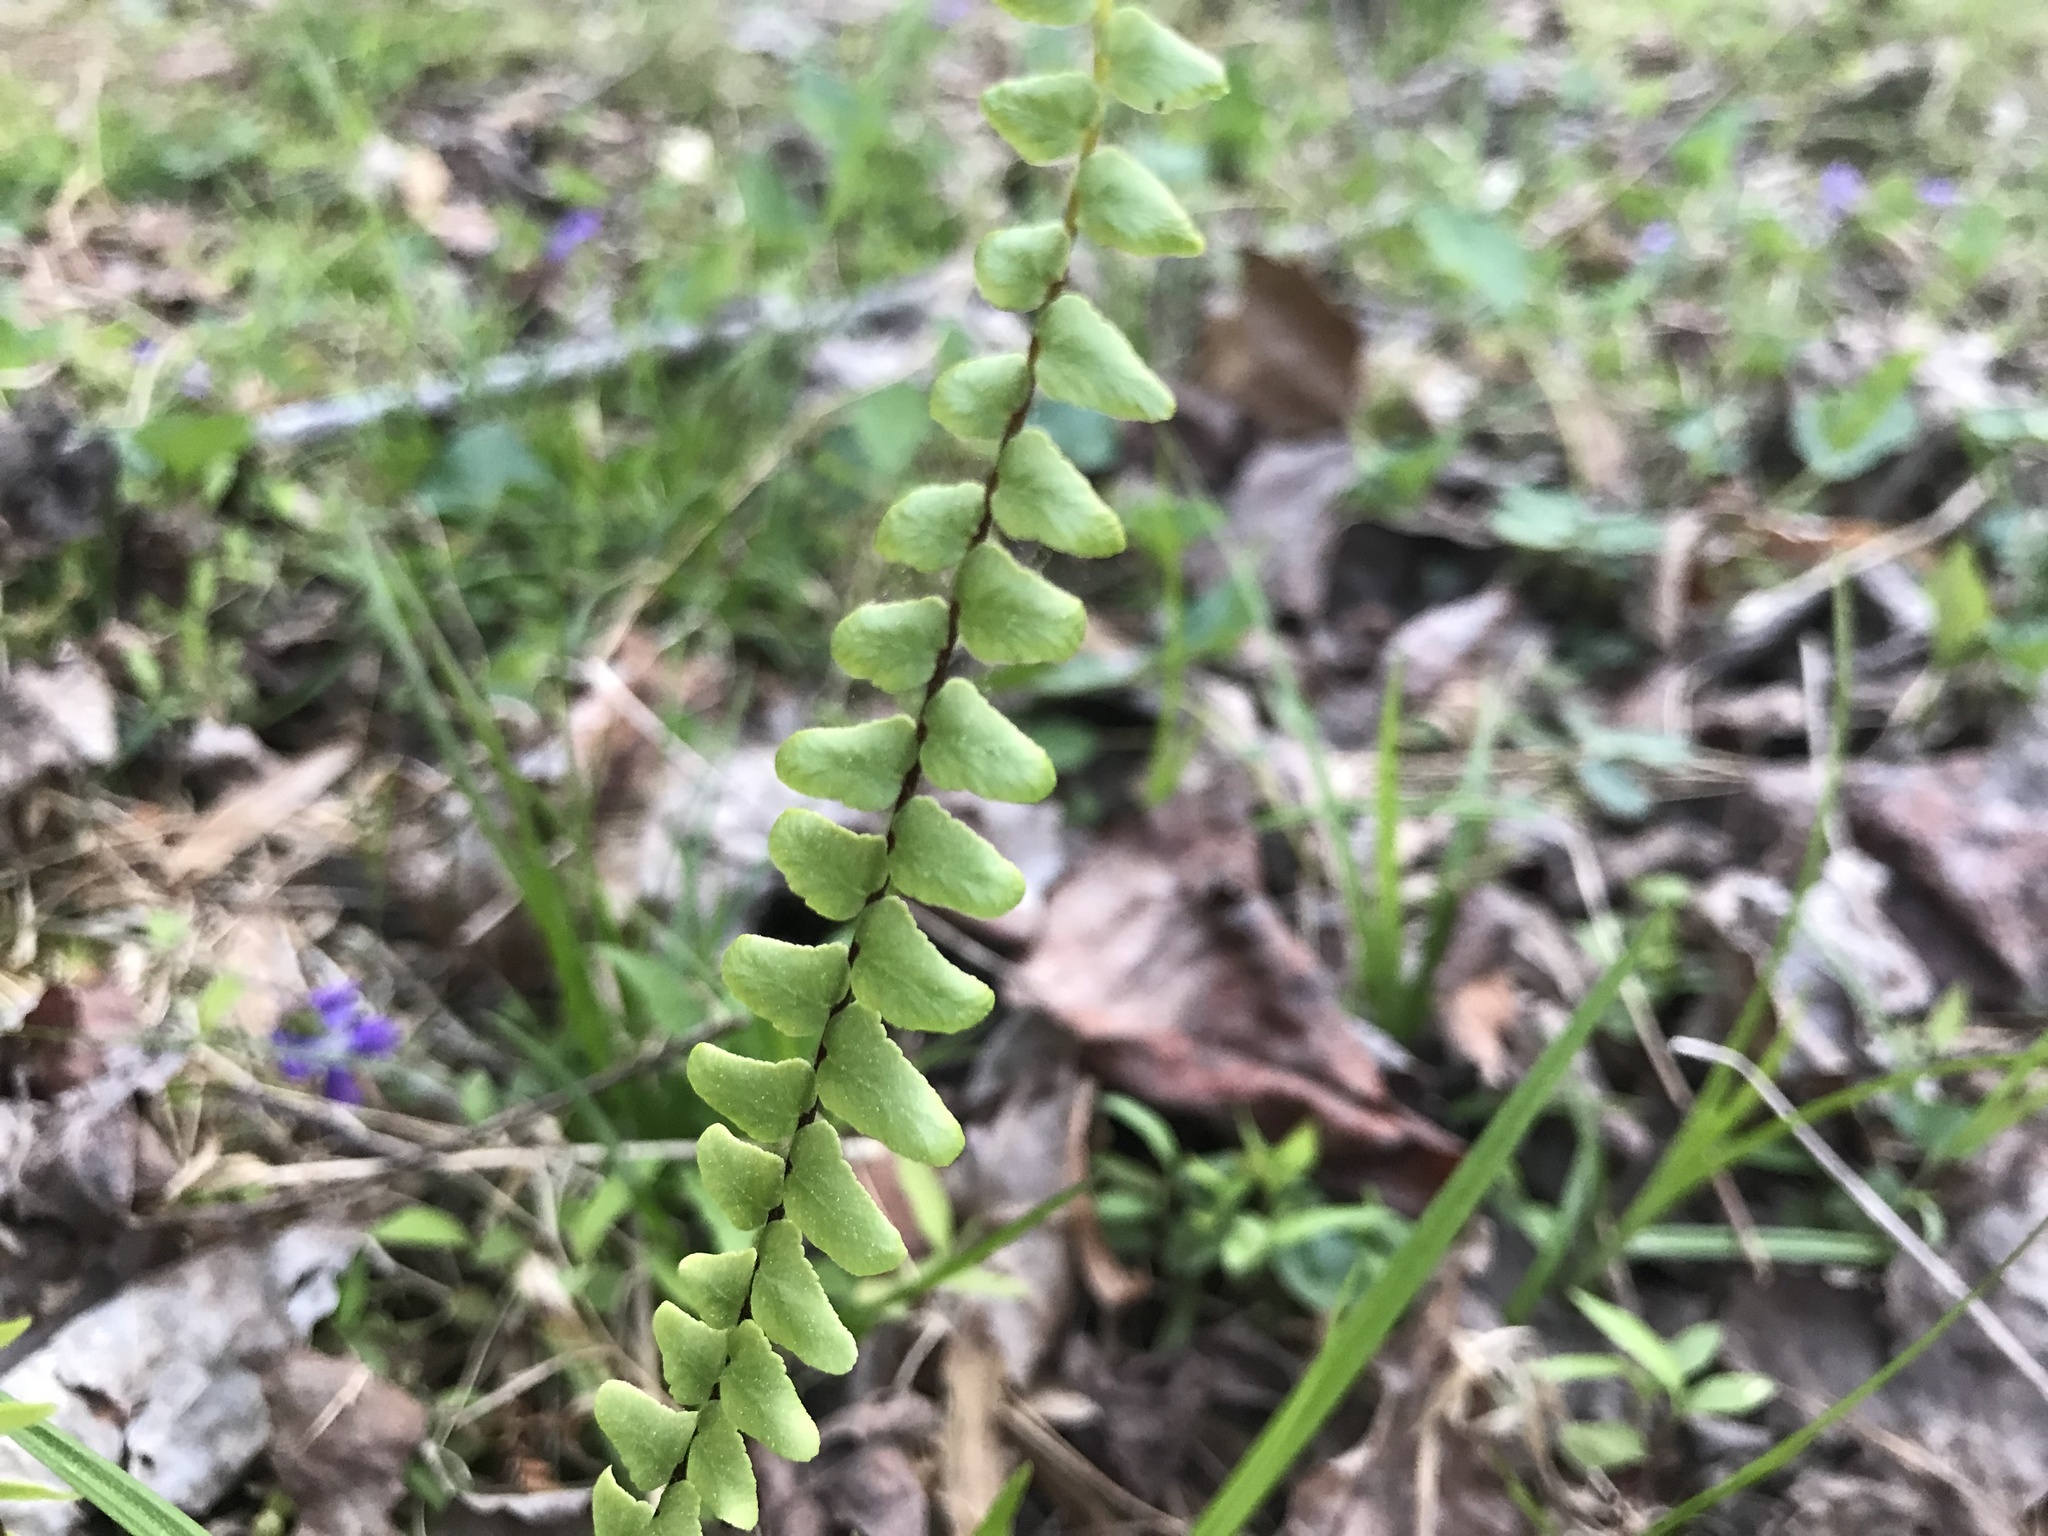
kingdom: Plantae
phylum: Tracheophyta
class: Polypodiopsida
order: Polypodiales
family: Aspleniaceae
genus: Asplenium
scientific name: Asplenium platyneuron
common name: Ebony spleenwort
